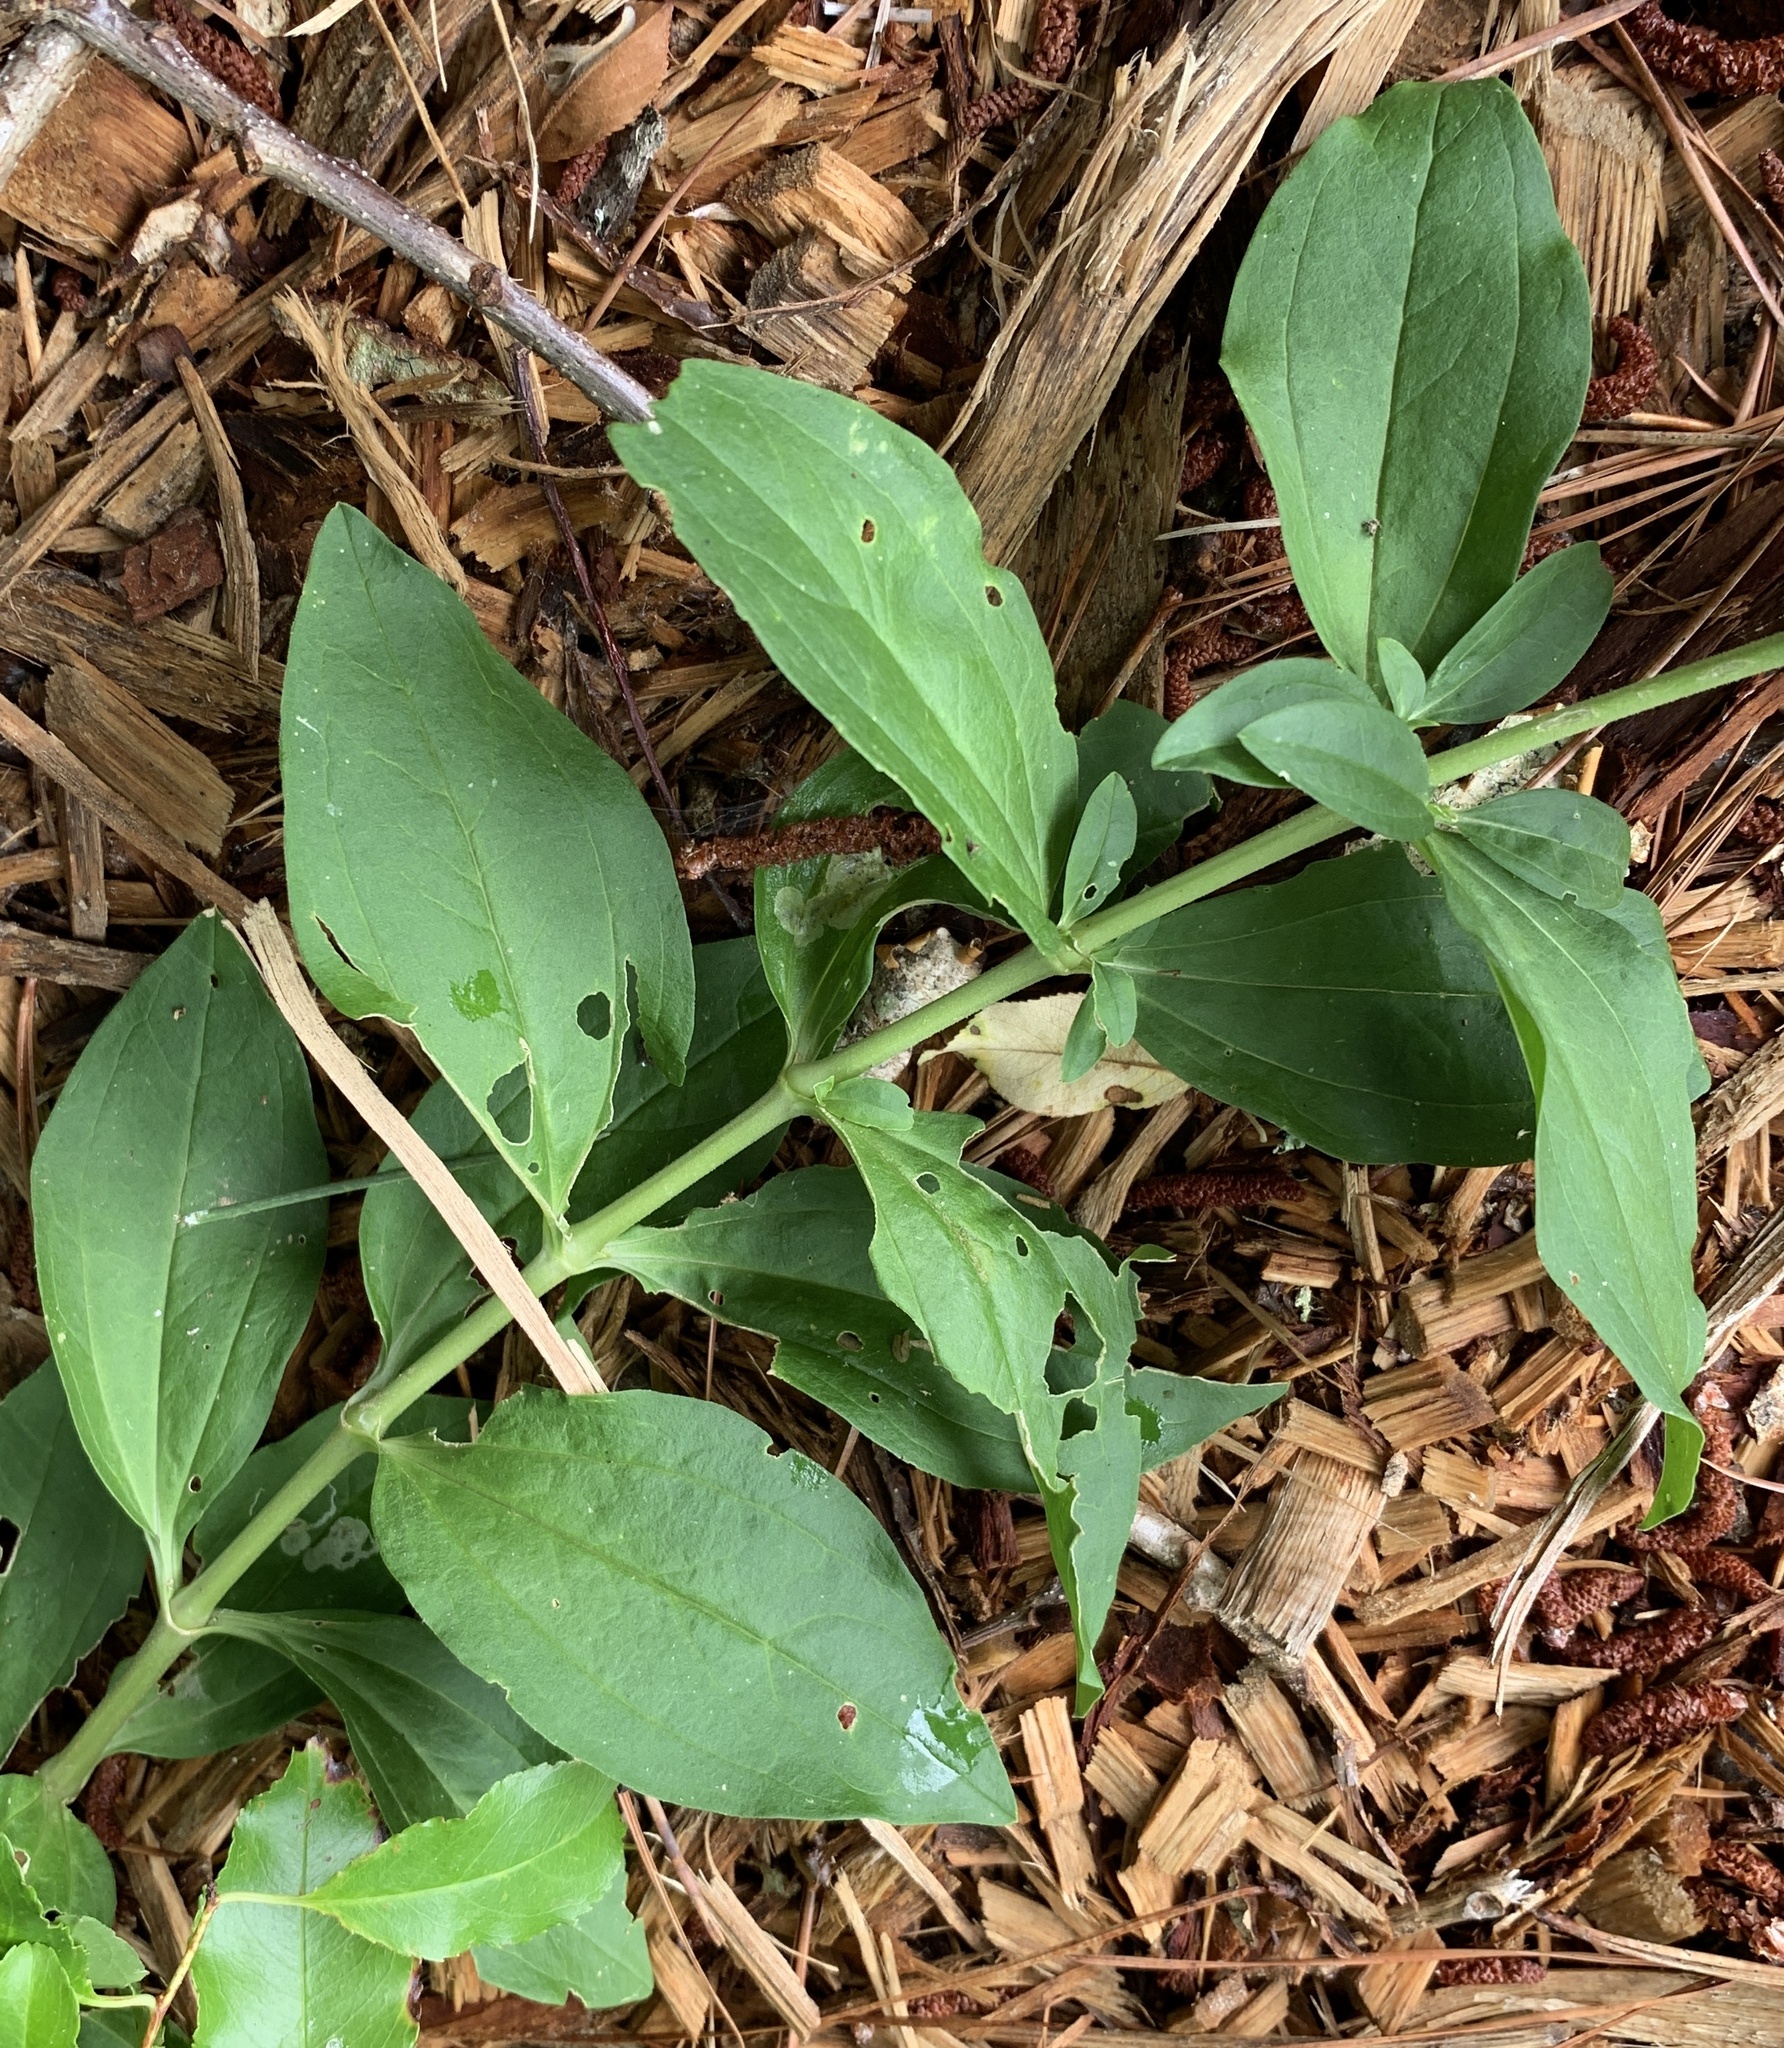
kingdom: Plantae
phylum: Tracheophyta
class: Magnoliopsida
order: Caryophyllales
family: Caryophyllaceae
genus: Saponaria
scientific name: Saponaria officinalis
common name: Soapwort
